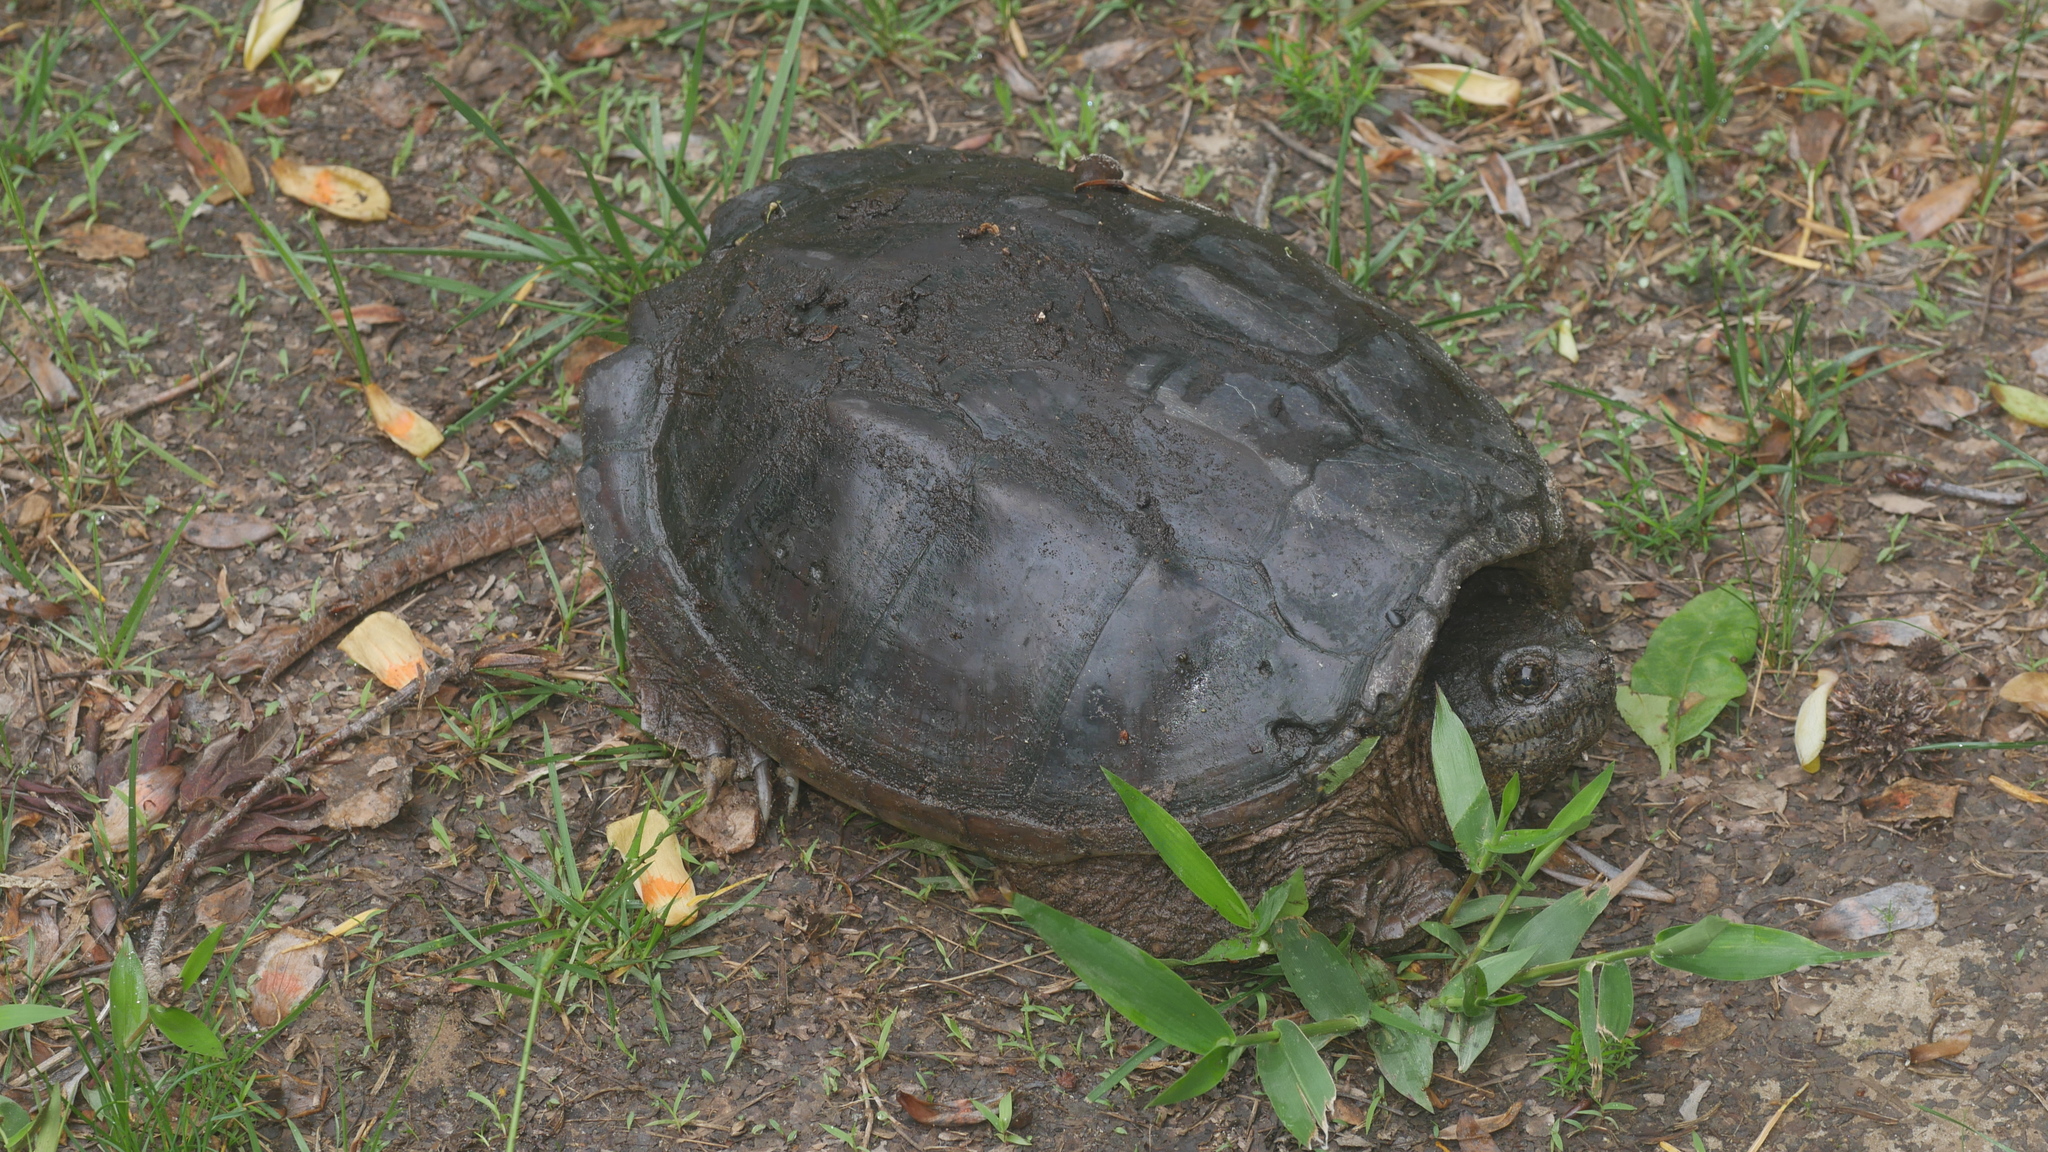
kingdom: Animalia
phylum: Chordata
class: Testudines
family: Chelydridae
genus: Chelydra
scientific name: Chelydra serpentina
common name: Common snapping turtle
